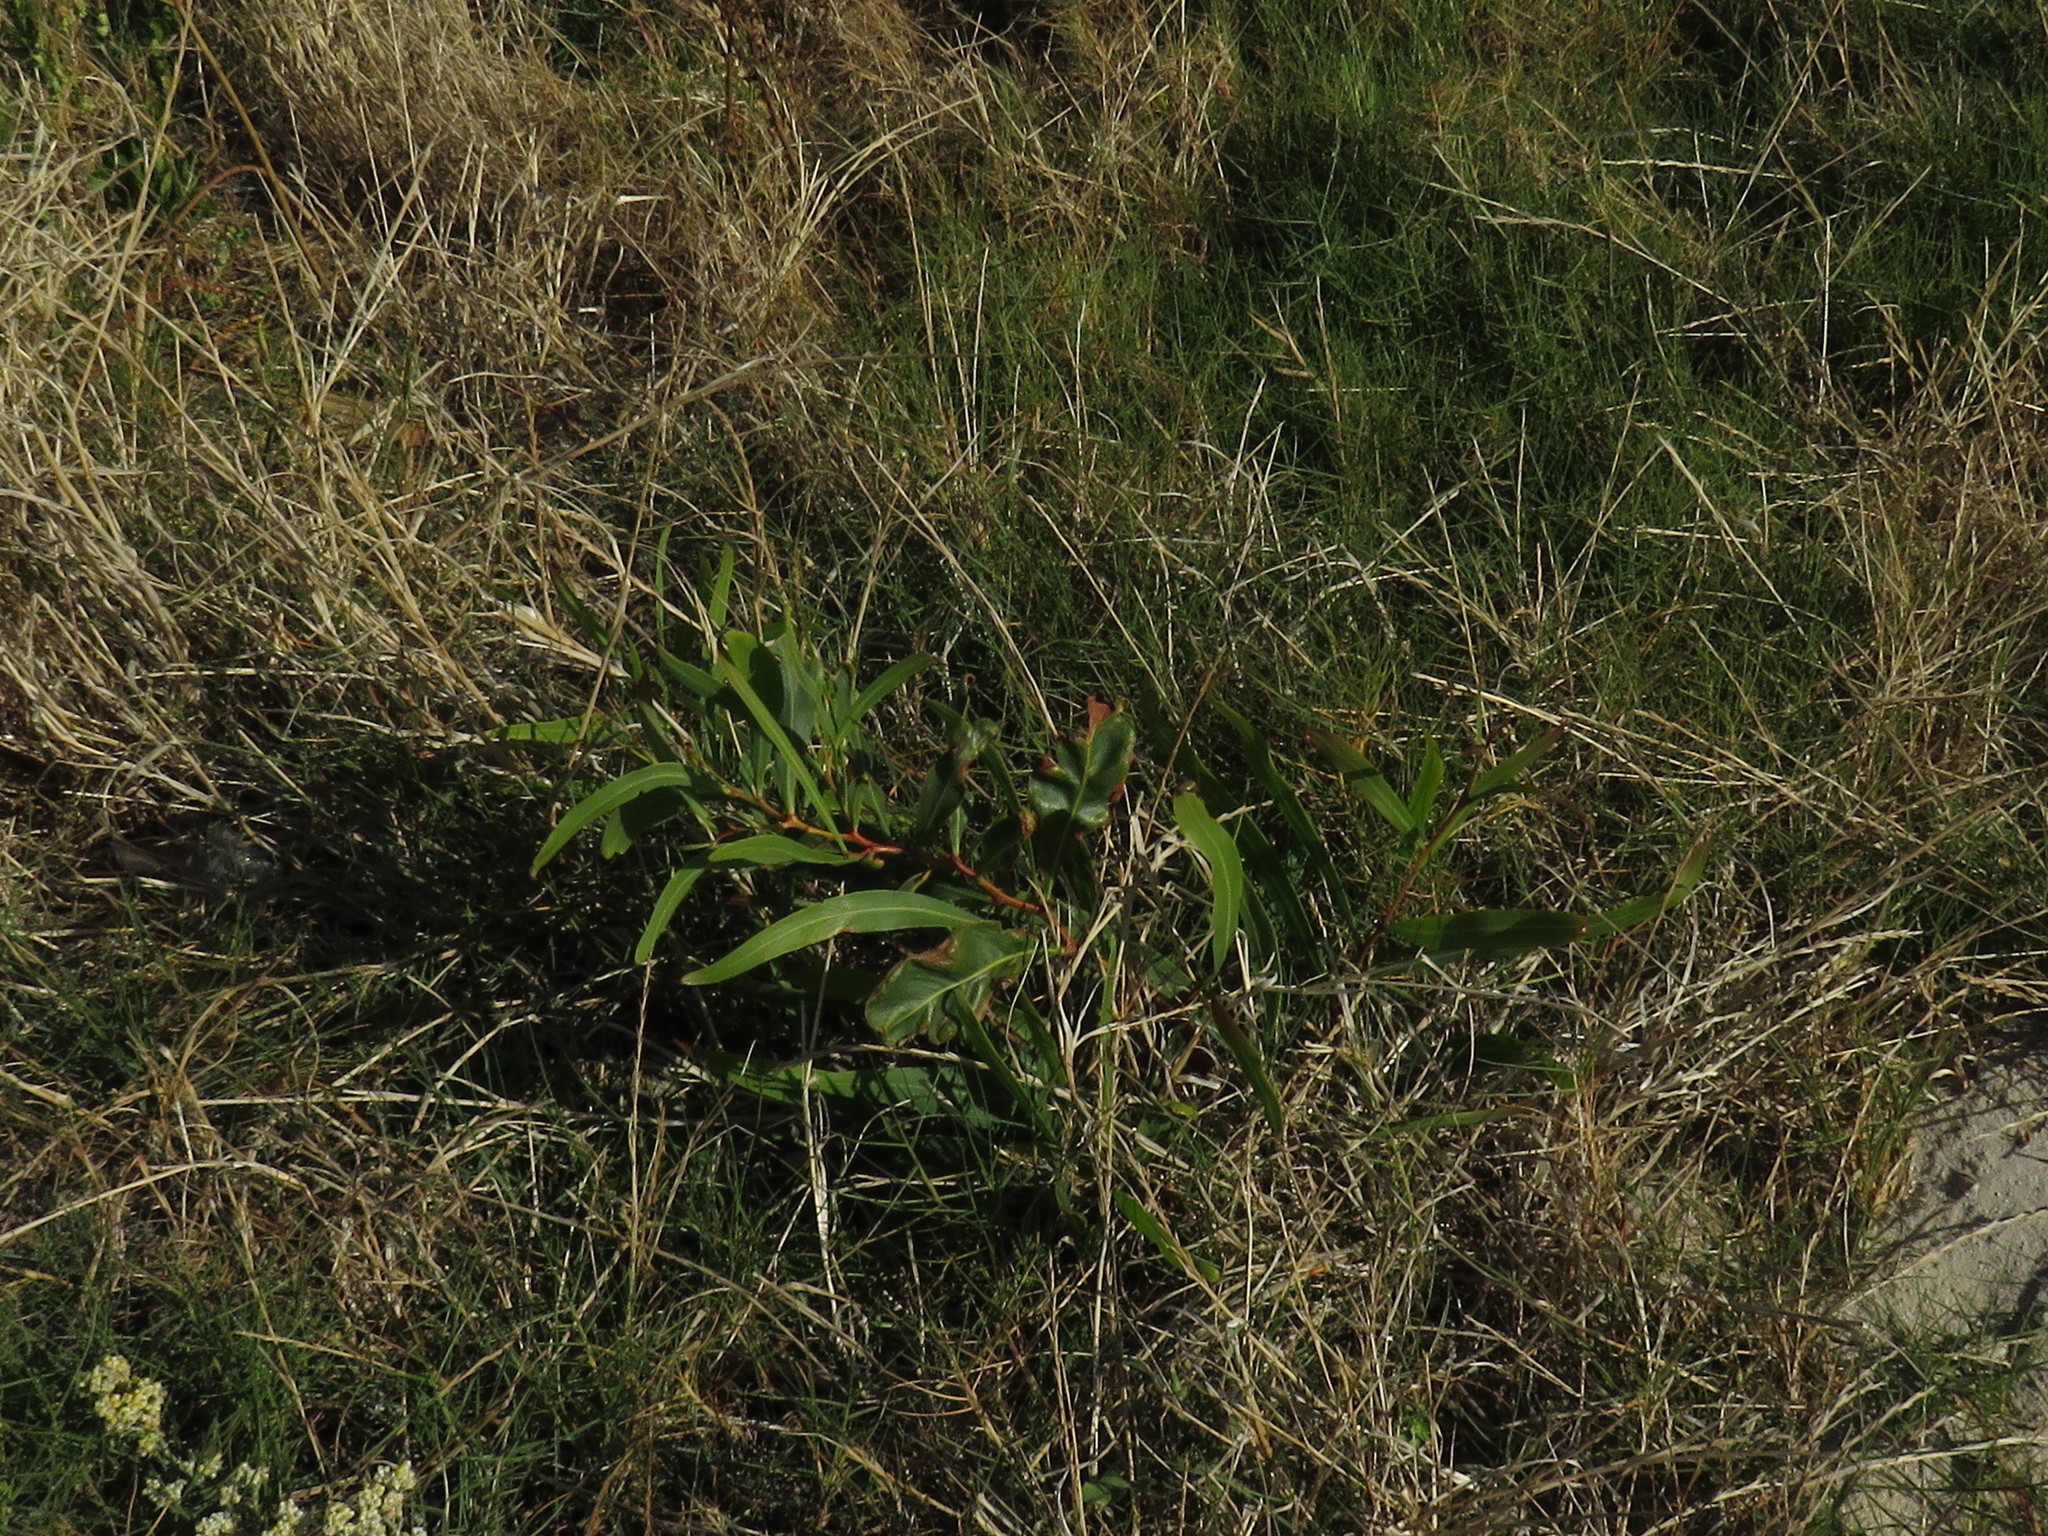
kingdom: Plantae
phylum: Tracheophyta
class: Magnoliopsida
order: Fabales
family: Fabaceae
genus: Acacia
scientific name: Acacia saligna
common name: Orange wattle
